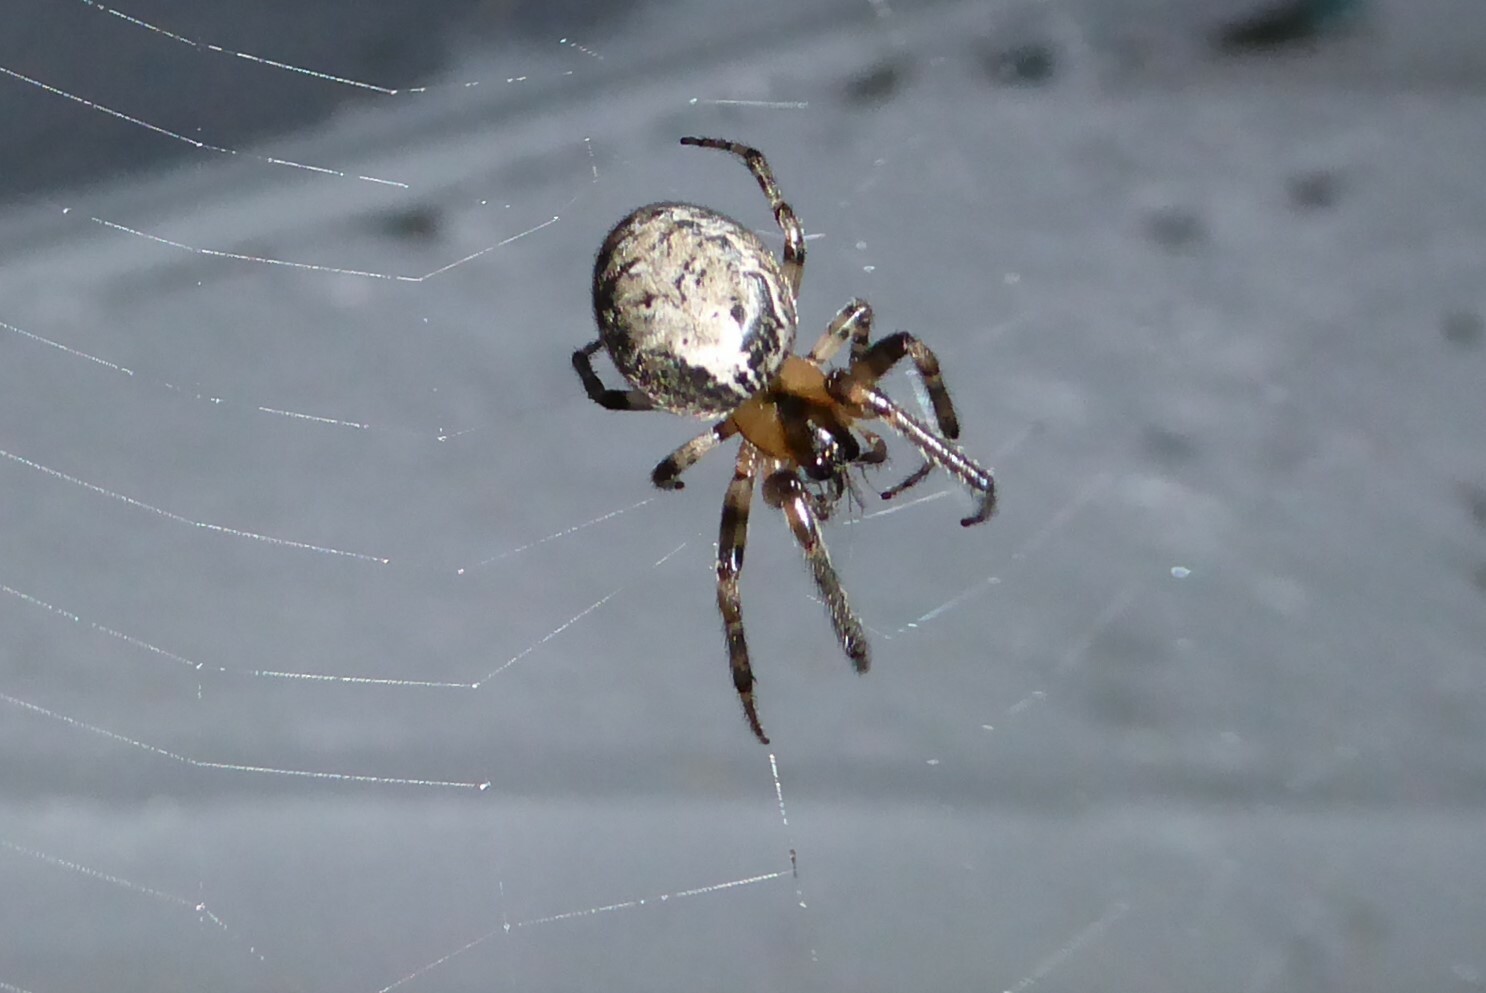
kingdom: Animalia
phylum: Arthropoda
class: Arachnida
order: Araneae
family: Araneidae
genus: Zygiella
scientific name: Zygiella x-notata
